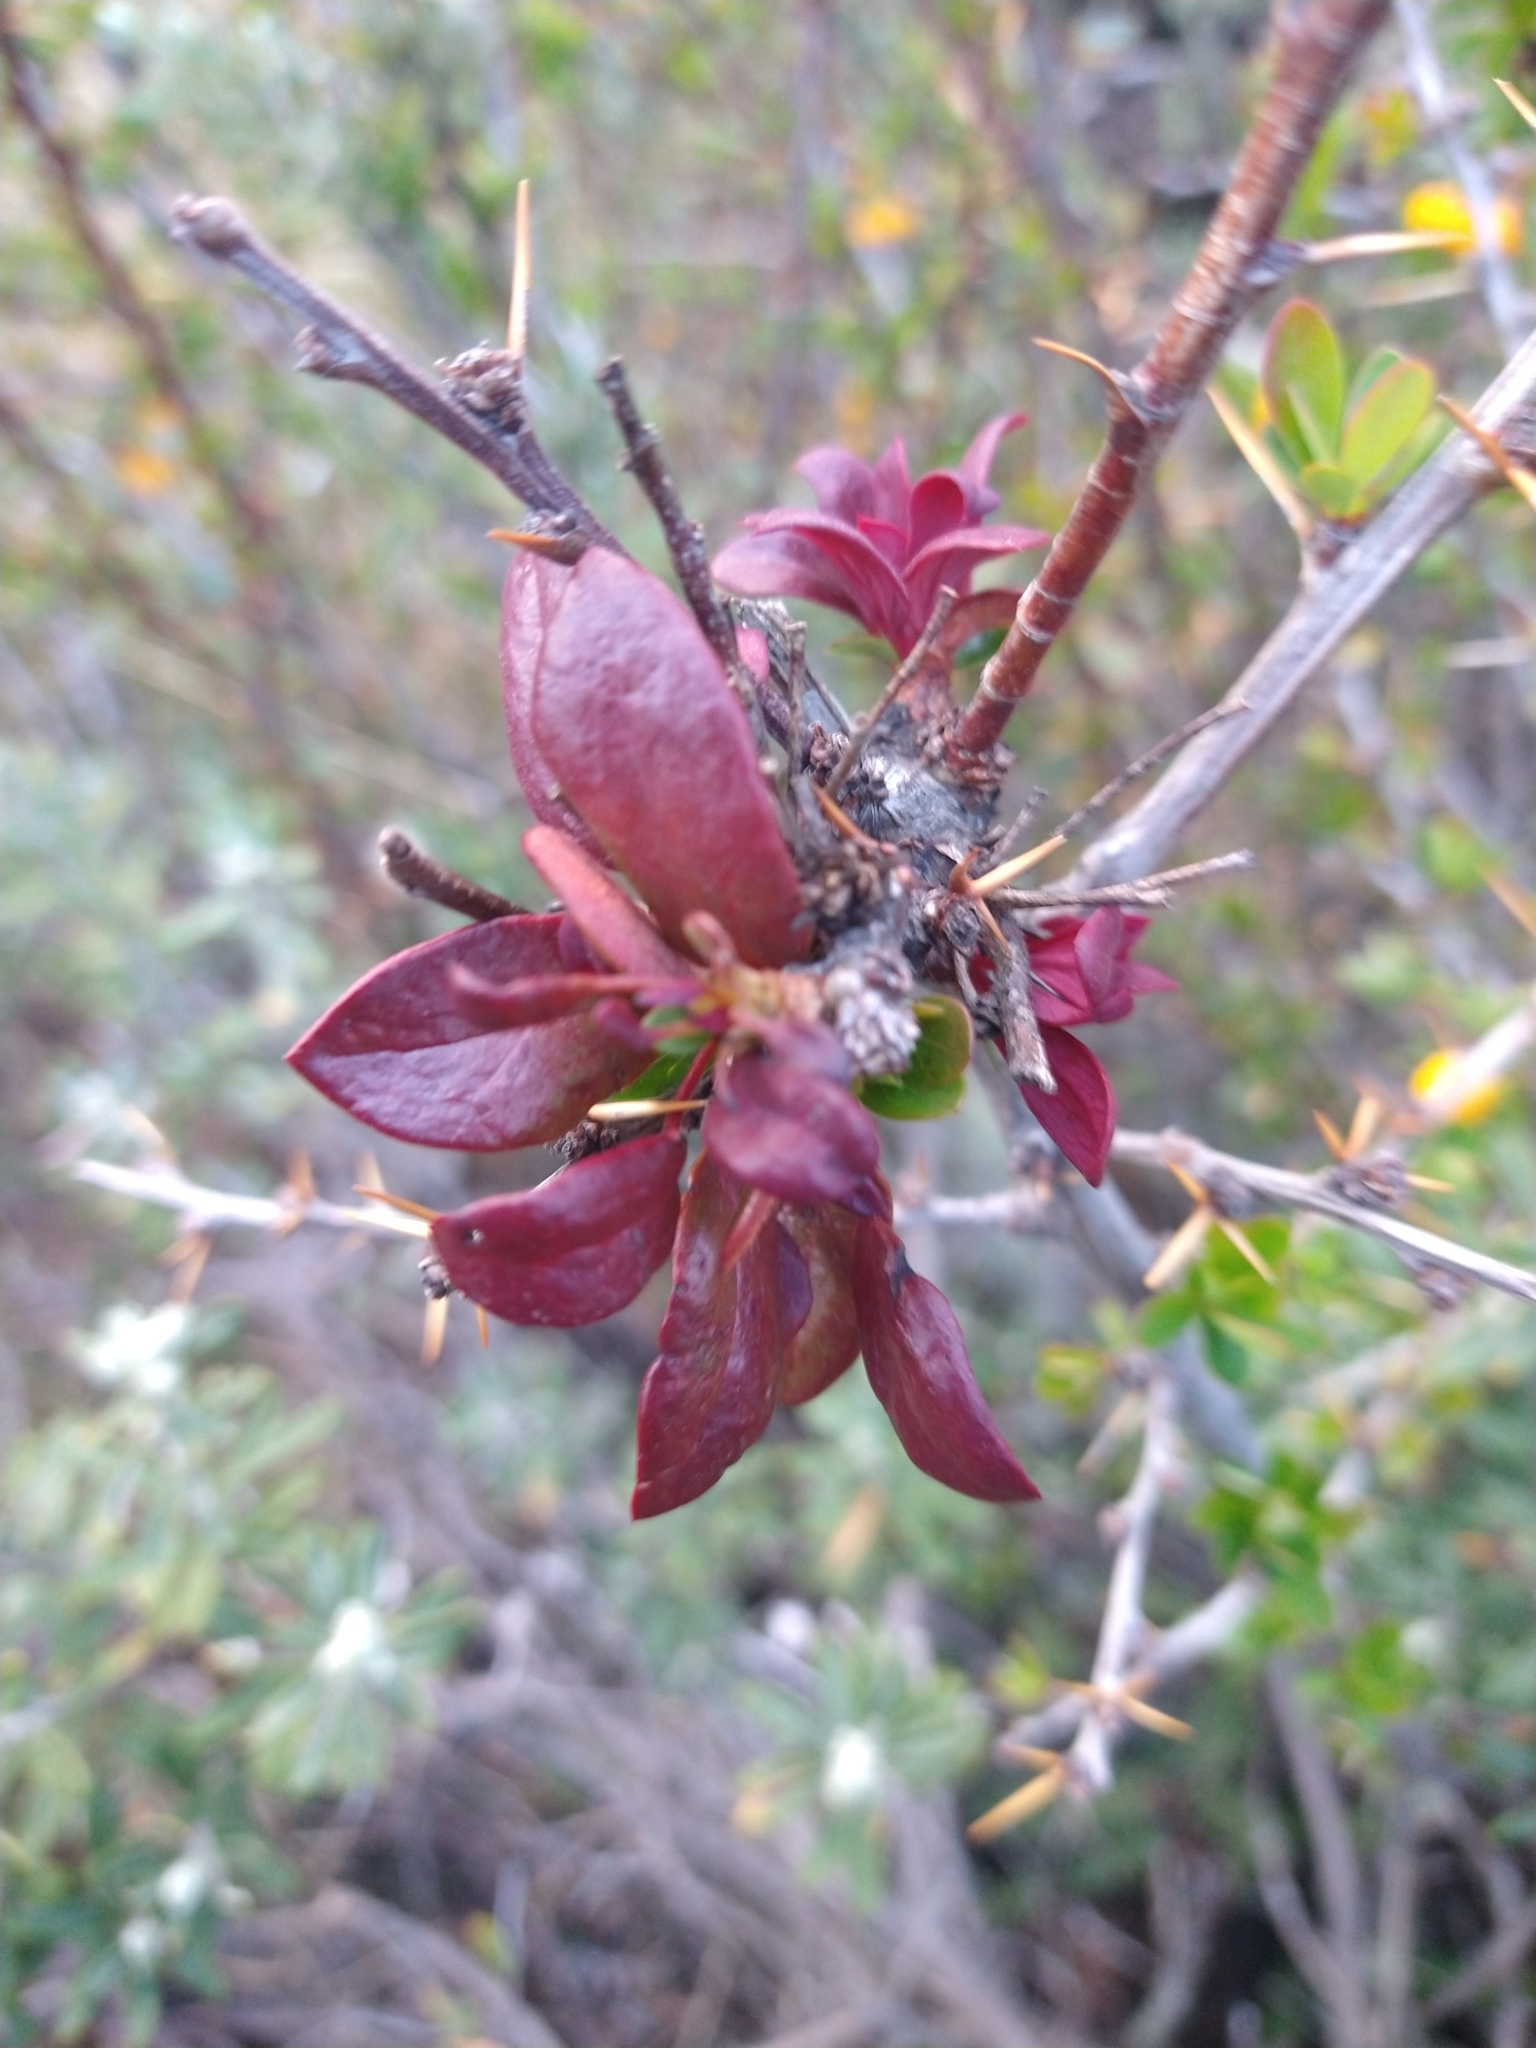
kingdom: Fungi
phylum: Basidiomycota
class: Pucciniomycetes
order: Pucciniales
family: Pucciniaceae
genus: Puccinia
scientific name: Puccinia magellanica
